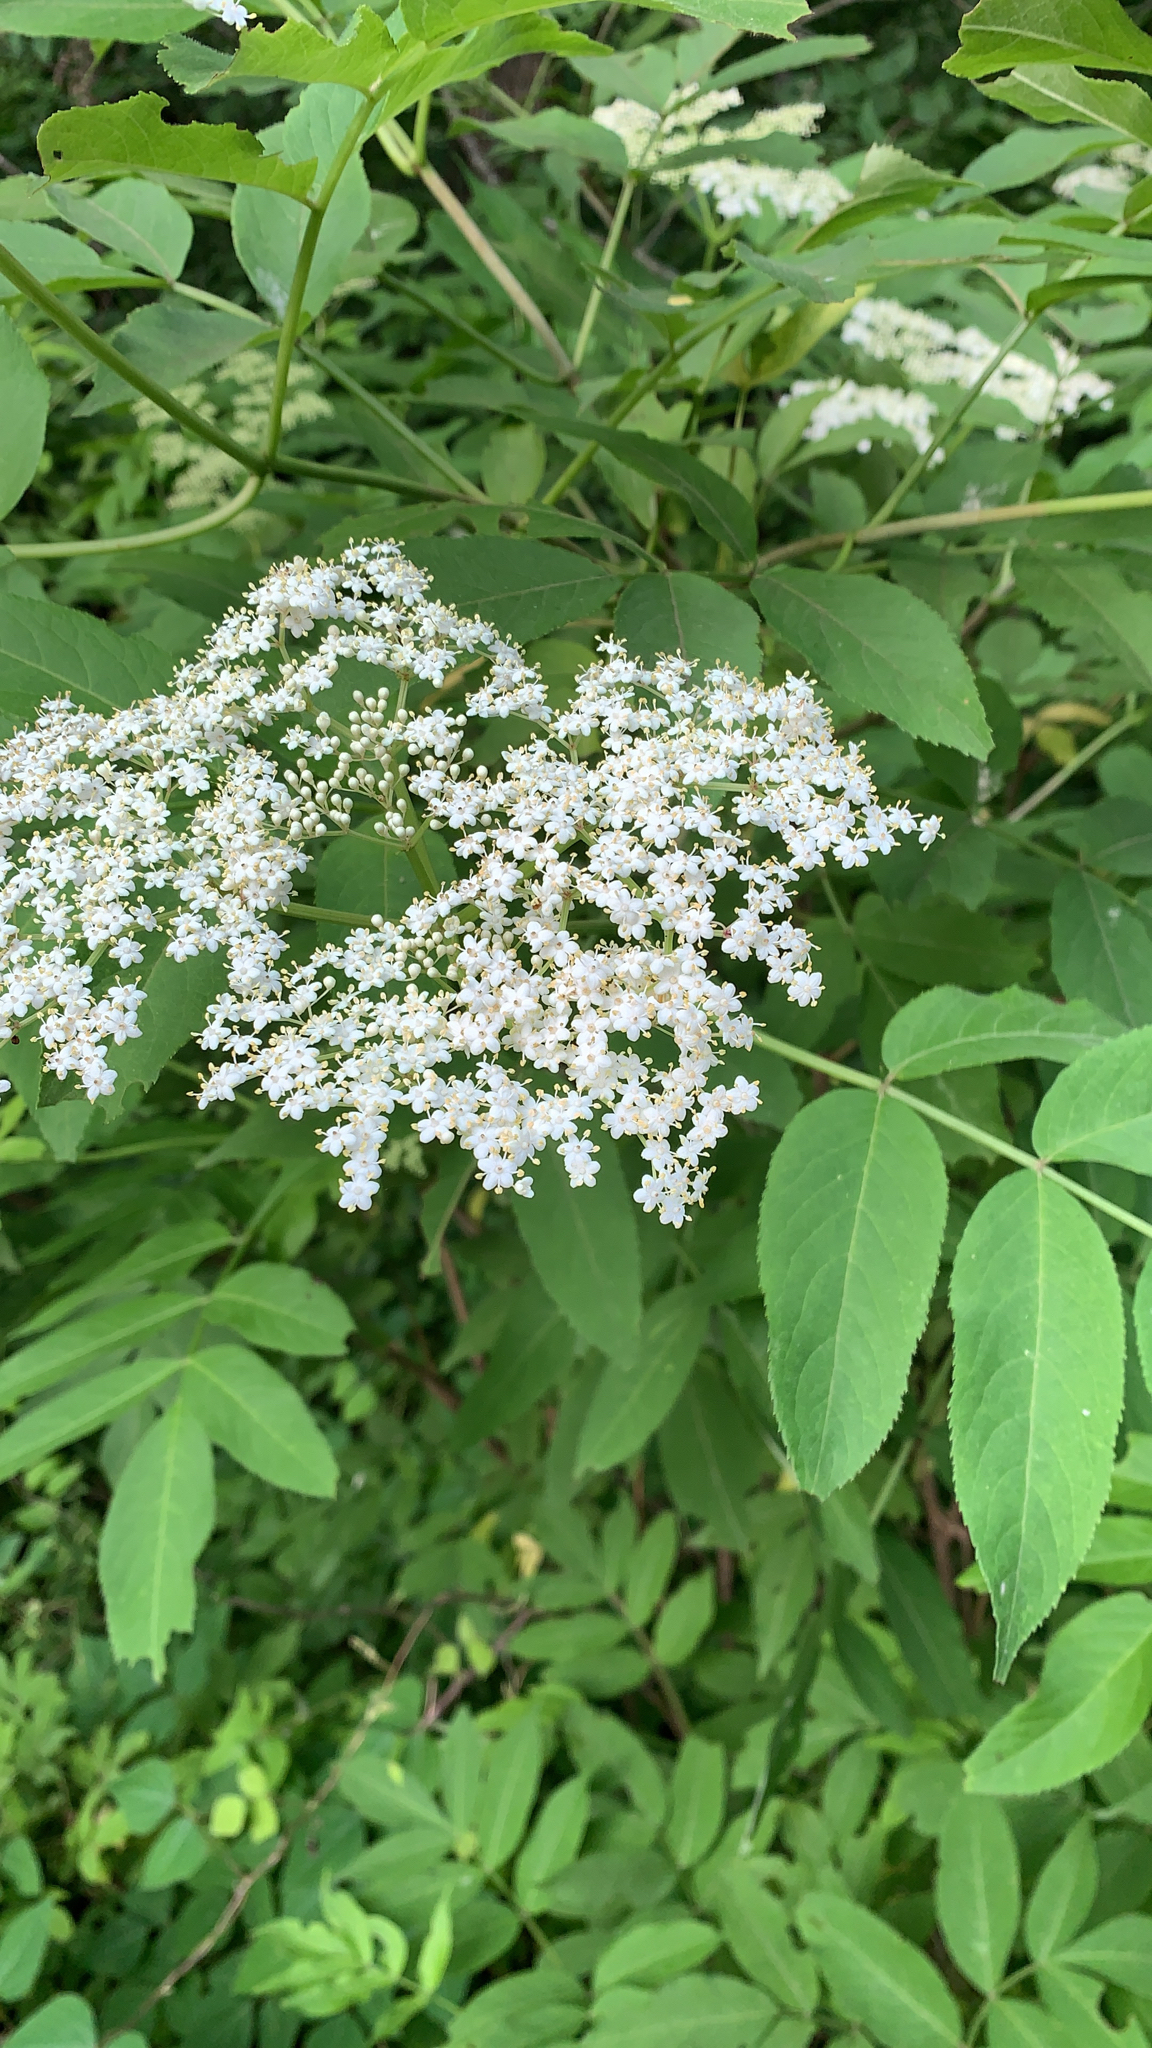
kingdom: Plantae
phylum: Tracheophyta
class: Magnoliopsida
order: Dipsacales
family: Viburnaceae
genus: Sambucus
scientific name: Sambucus canadensis
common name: American elder
